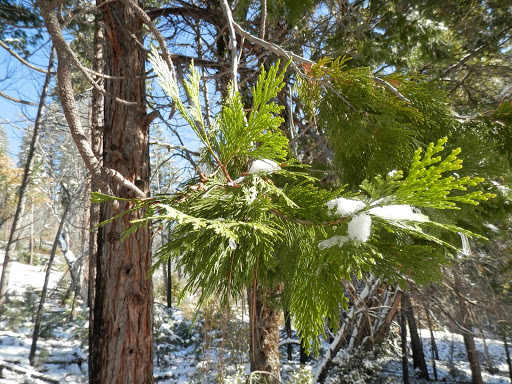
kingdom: Plantae
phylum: Tracheophyta
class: Pinopsida
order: Pinales
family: Cupressaceae
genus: Calocedrus
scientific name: Calocedrus decurrens
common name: Californian incense-cedar
